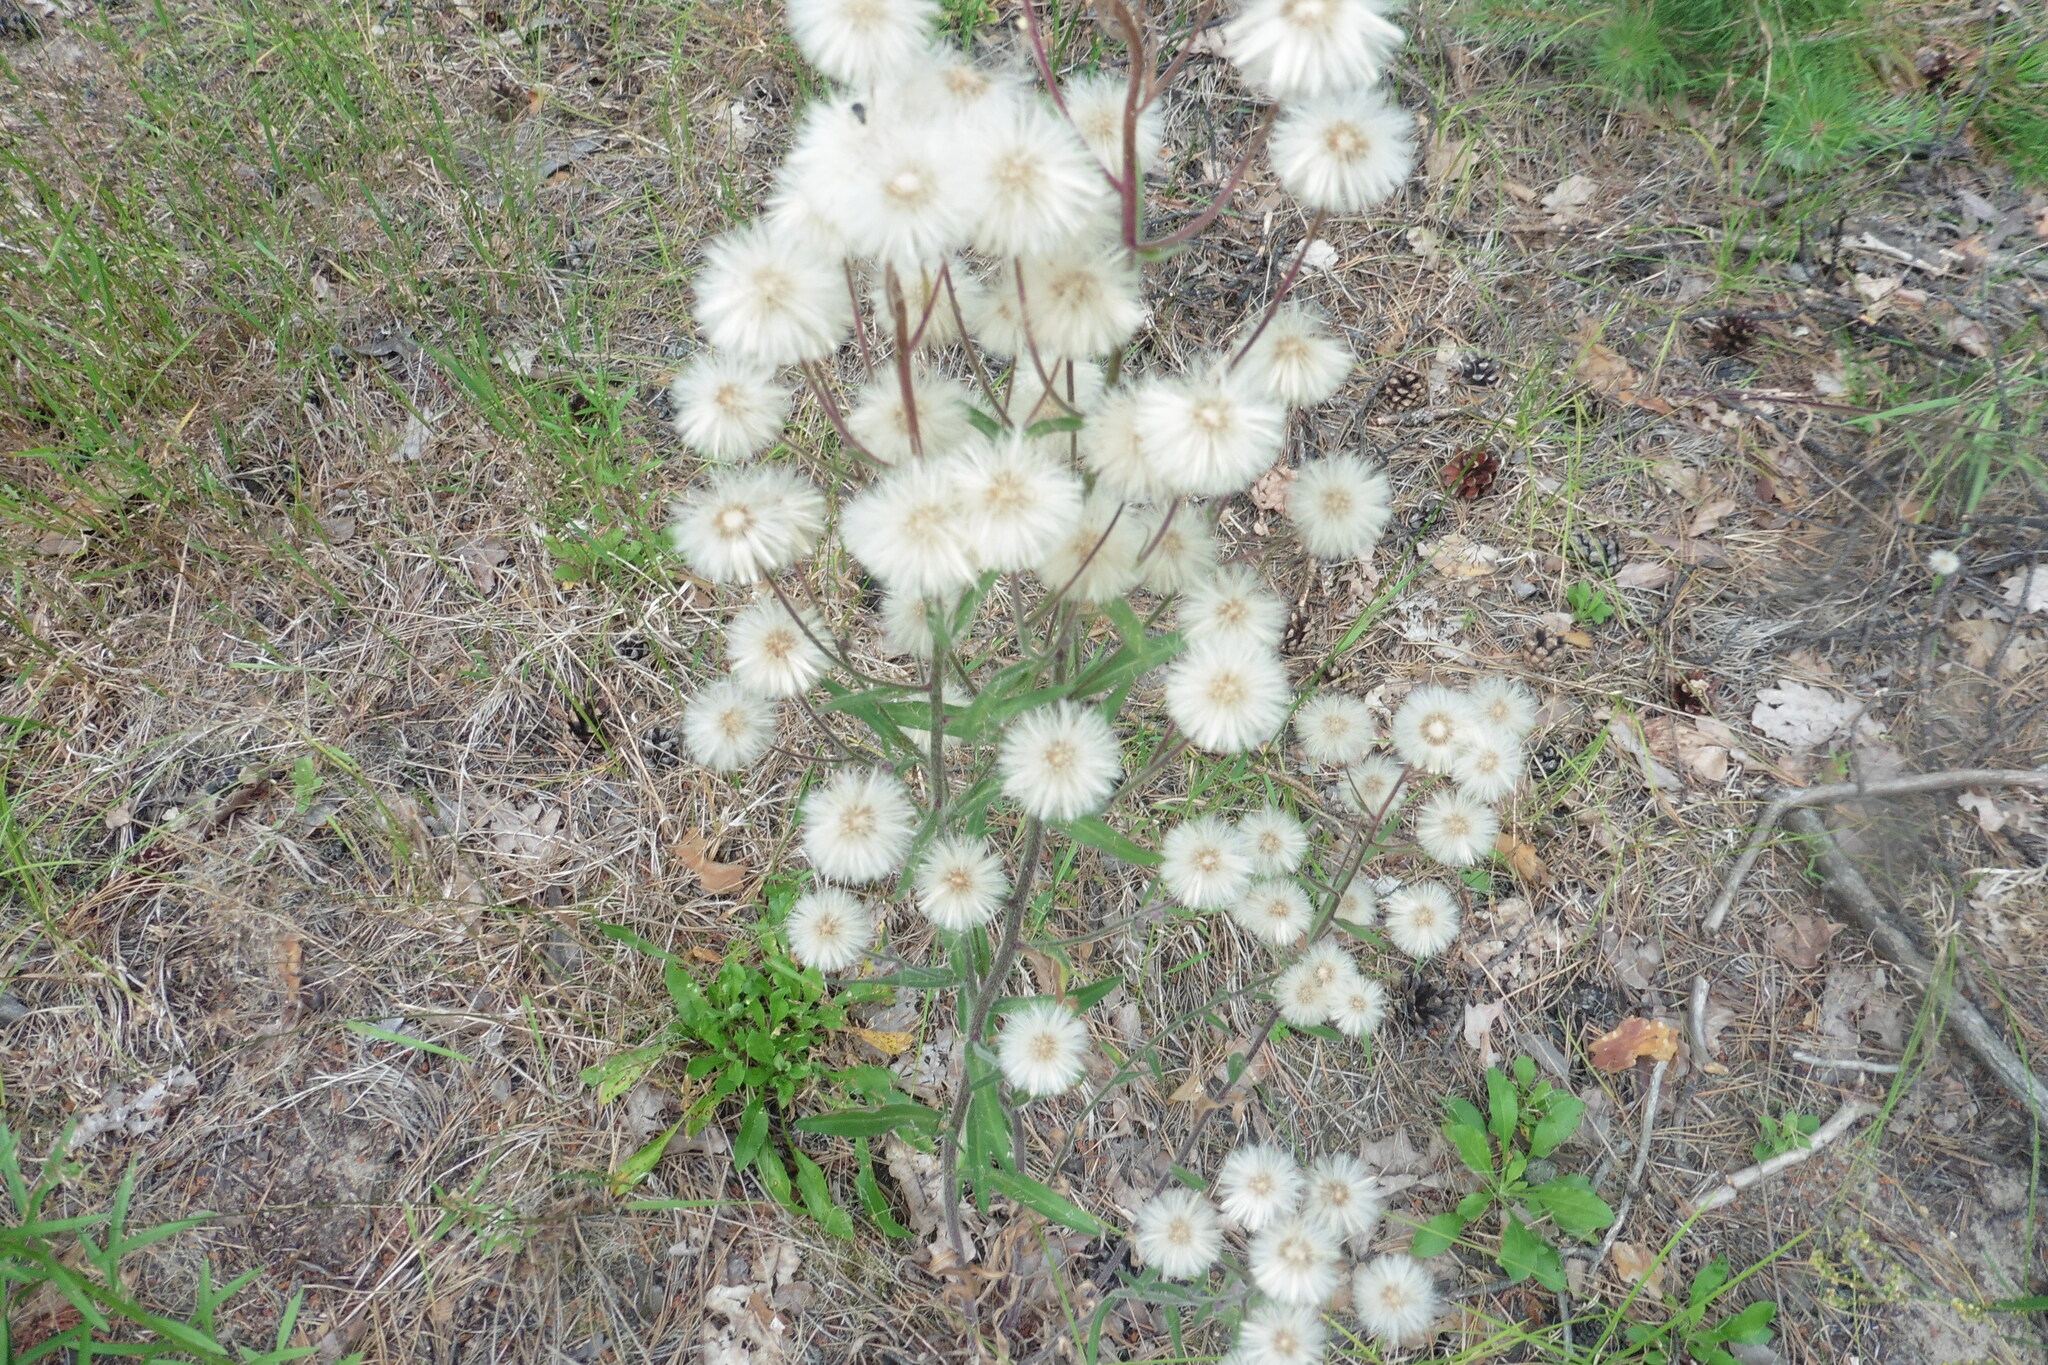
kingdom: Plantae
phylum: Tracheophyta
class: Magnoliopsida
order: Asterales
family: Asteraceae
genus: Erigeron
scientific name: Erigeron acris
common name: Blue fleabane
